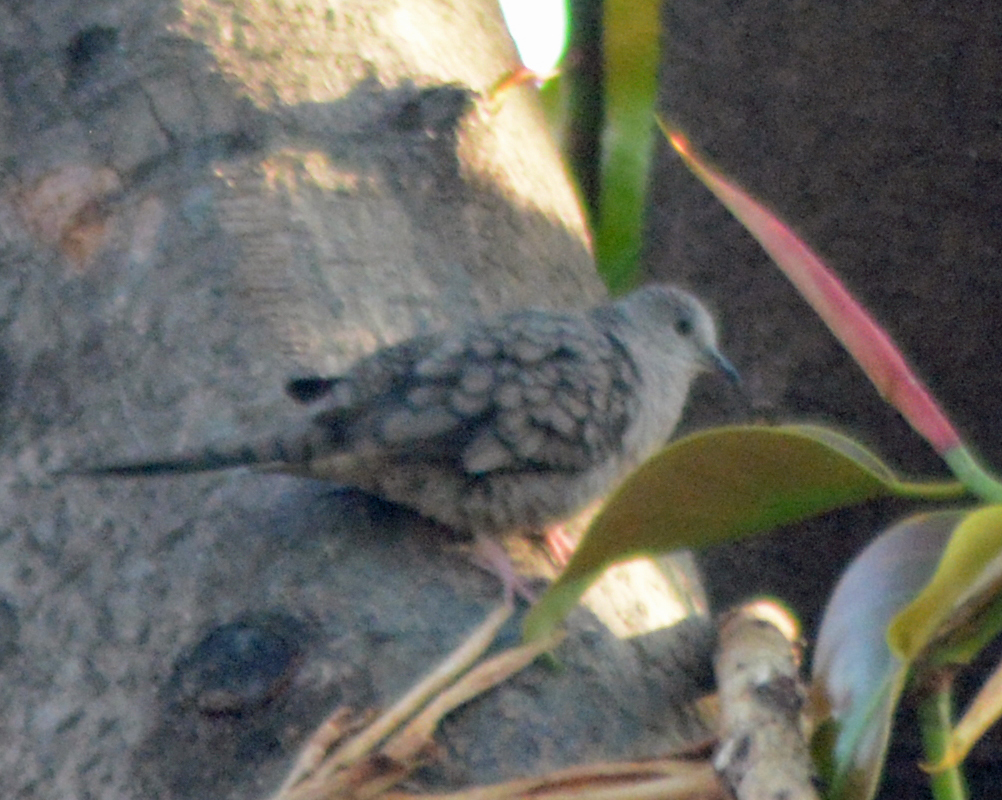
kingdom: Animalia
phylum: Chordata
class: Aves
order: Columbiformes
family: Columbidae
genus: Columbina
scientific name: Columbina inca
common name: Inca dove
